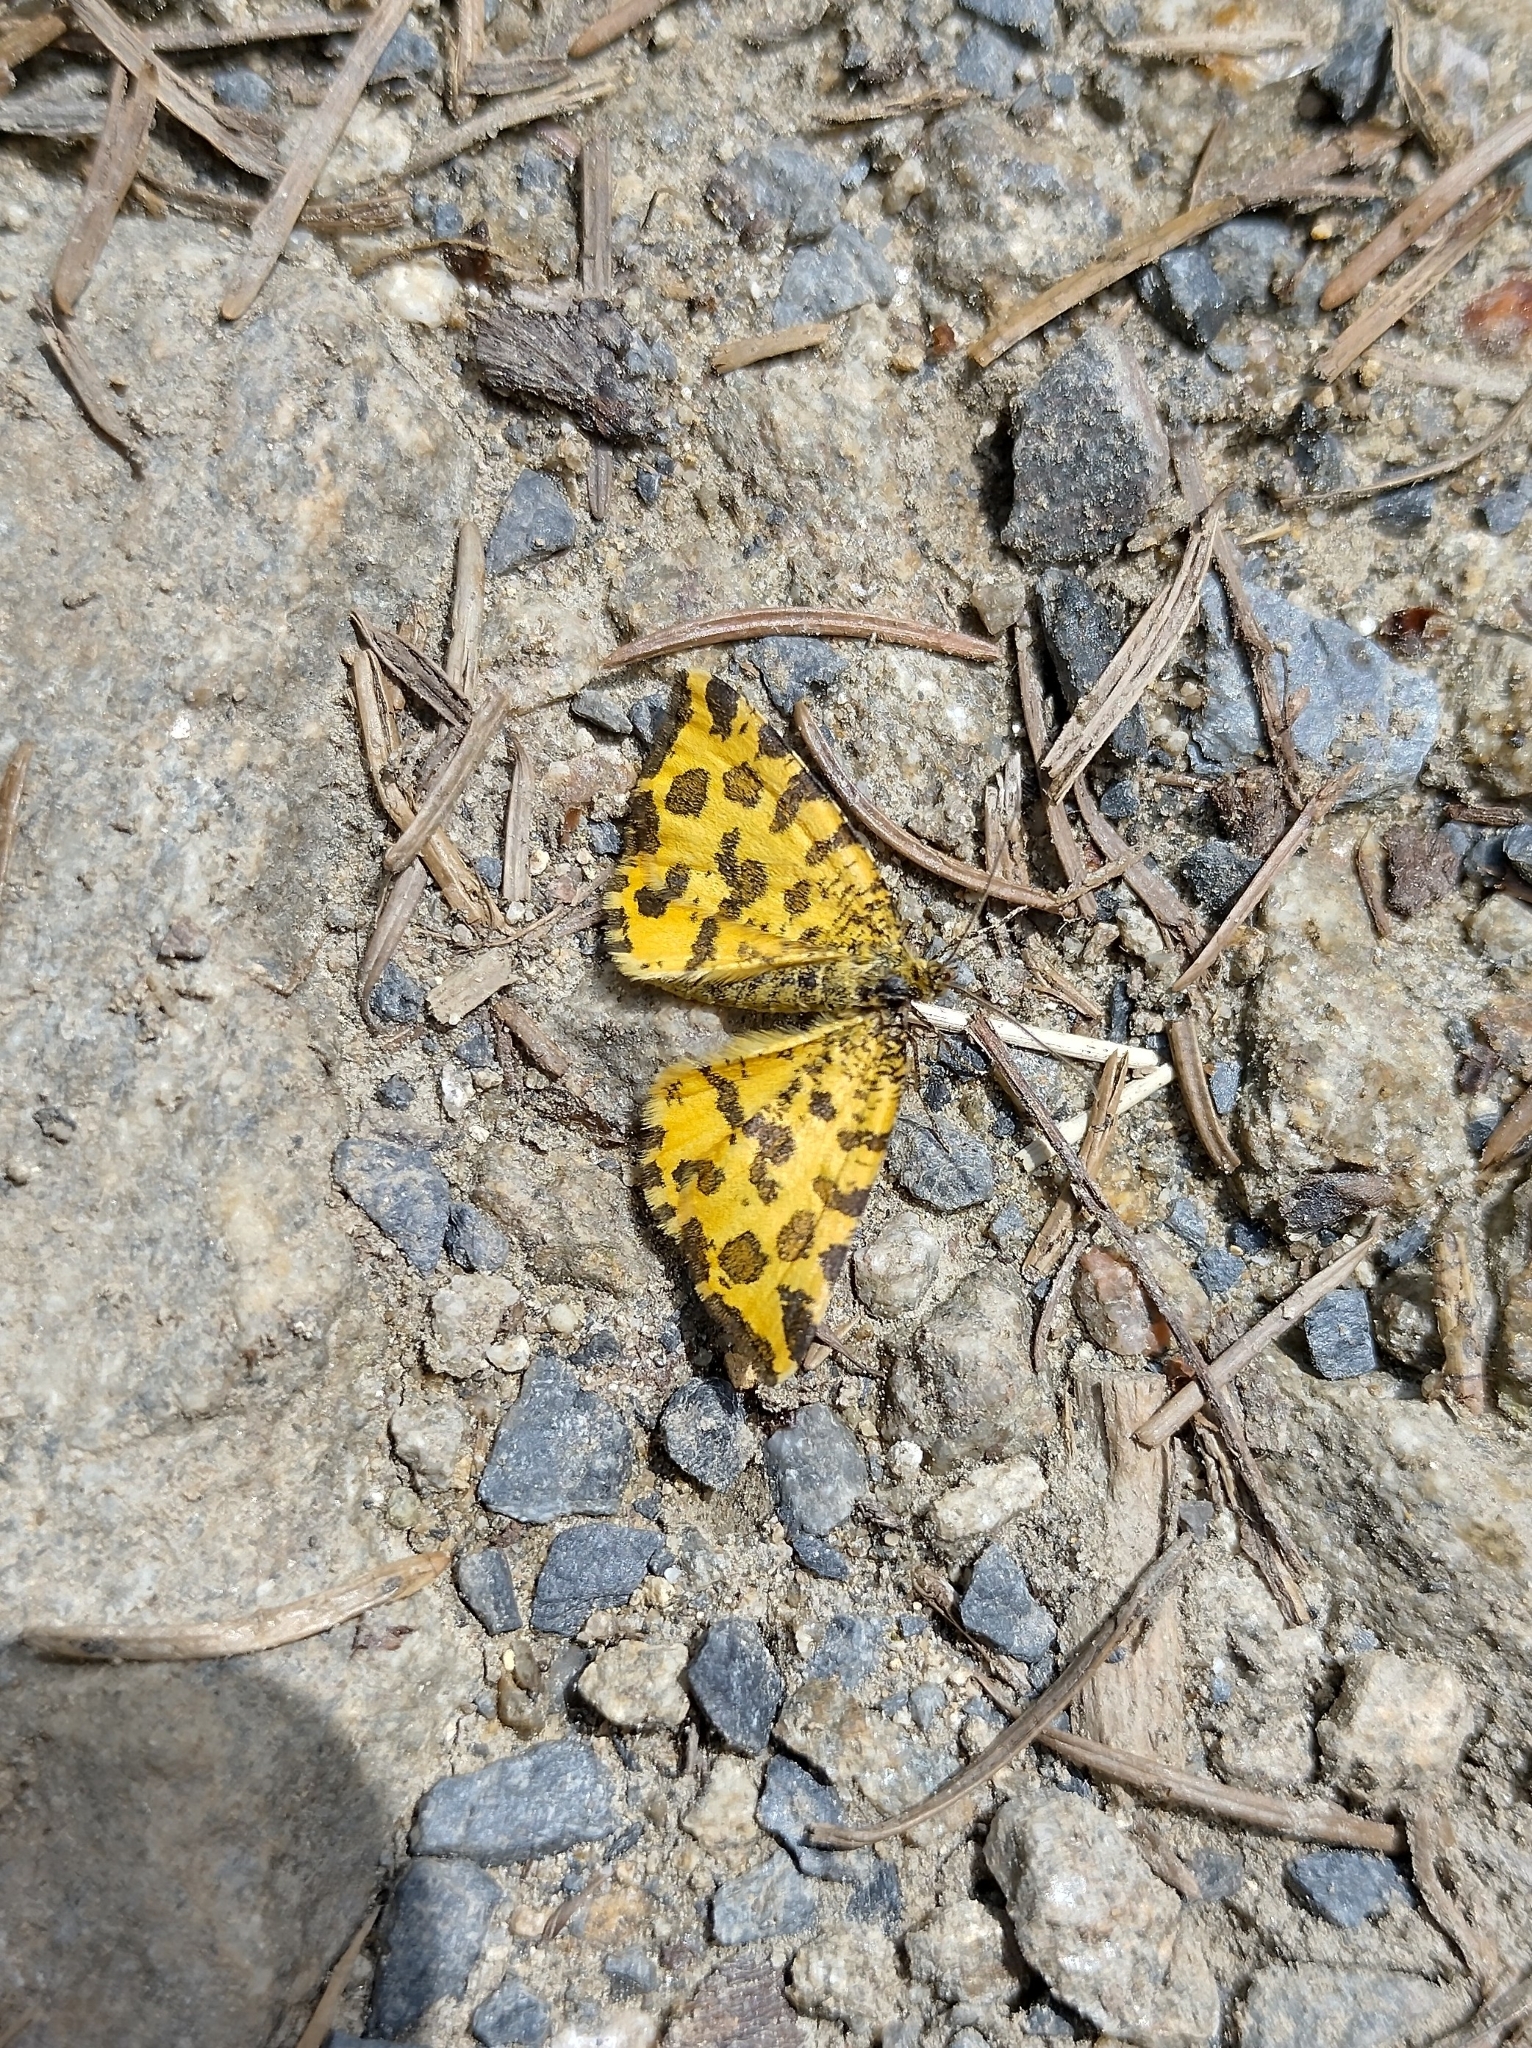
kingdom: Animalia
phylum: Arthropoda
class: Insecta
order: Lepidoptera
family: Geometridae
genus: Pseudopanthera
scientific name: Pseudopanthera macularia
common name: Speckled yellow
